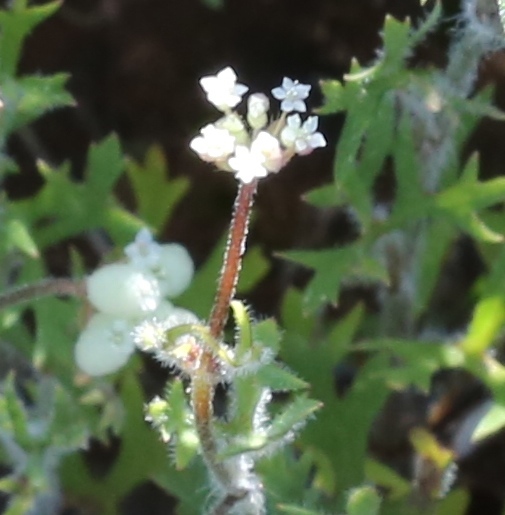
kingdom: Plantae
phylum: Tracheophyta
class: Magnoliopsida
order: Apiales
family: Araliaceae
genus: Trachymene
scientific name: Trachymene ornata
